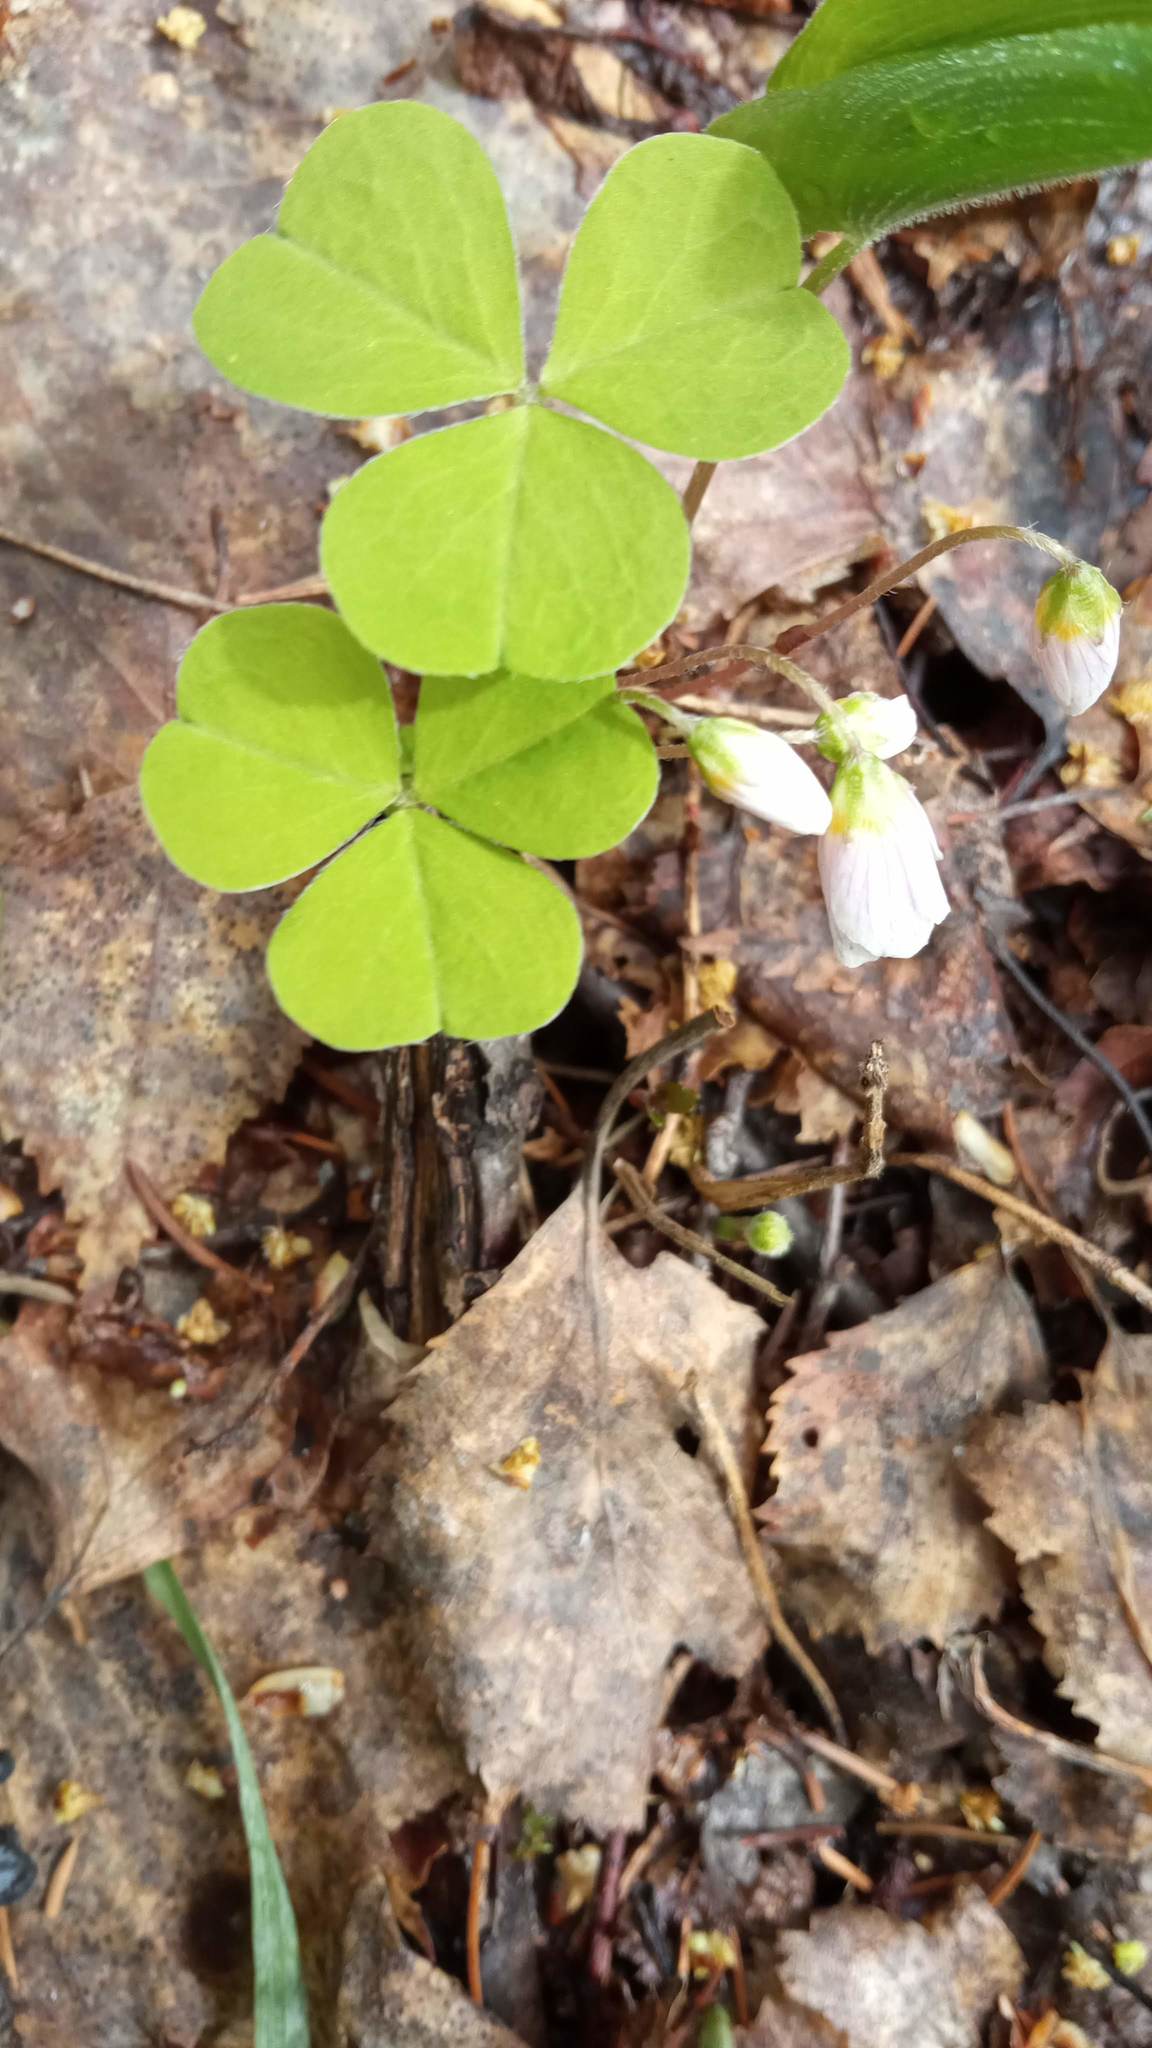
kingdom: Plantae
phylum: Tracheophyta
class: Magnoliopsida
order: Oxalidales
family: Oxalidaceae
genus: Oxalis
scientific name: Oxalis acetosella
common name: Wood-sorrel
